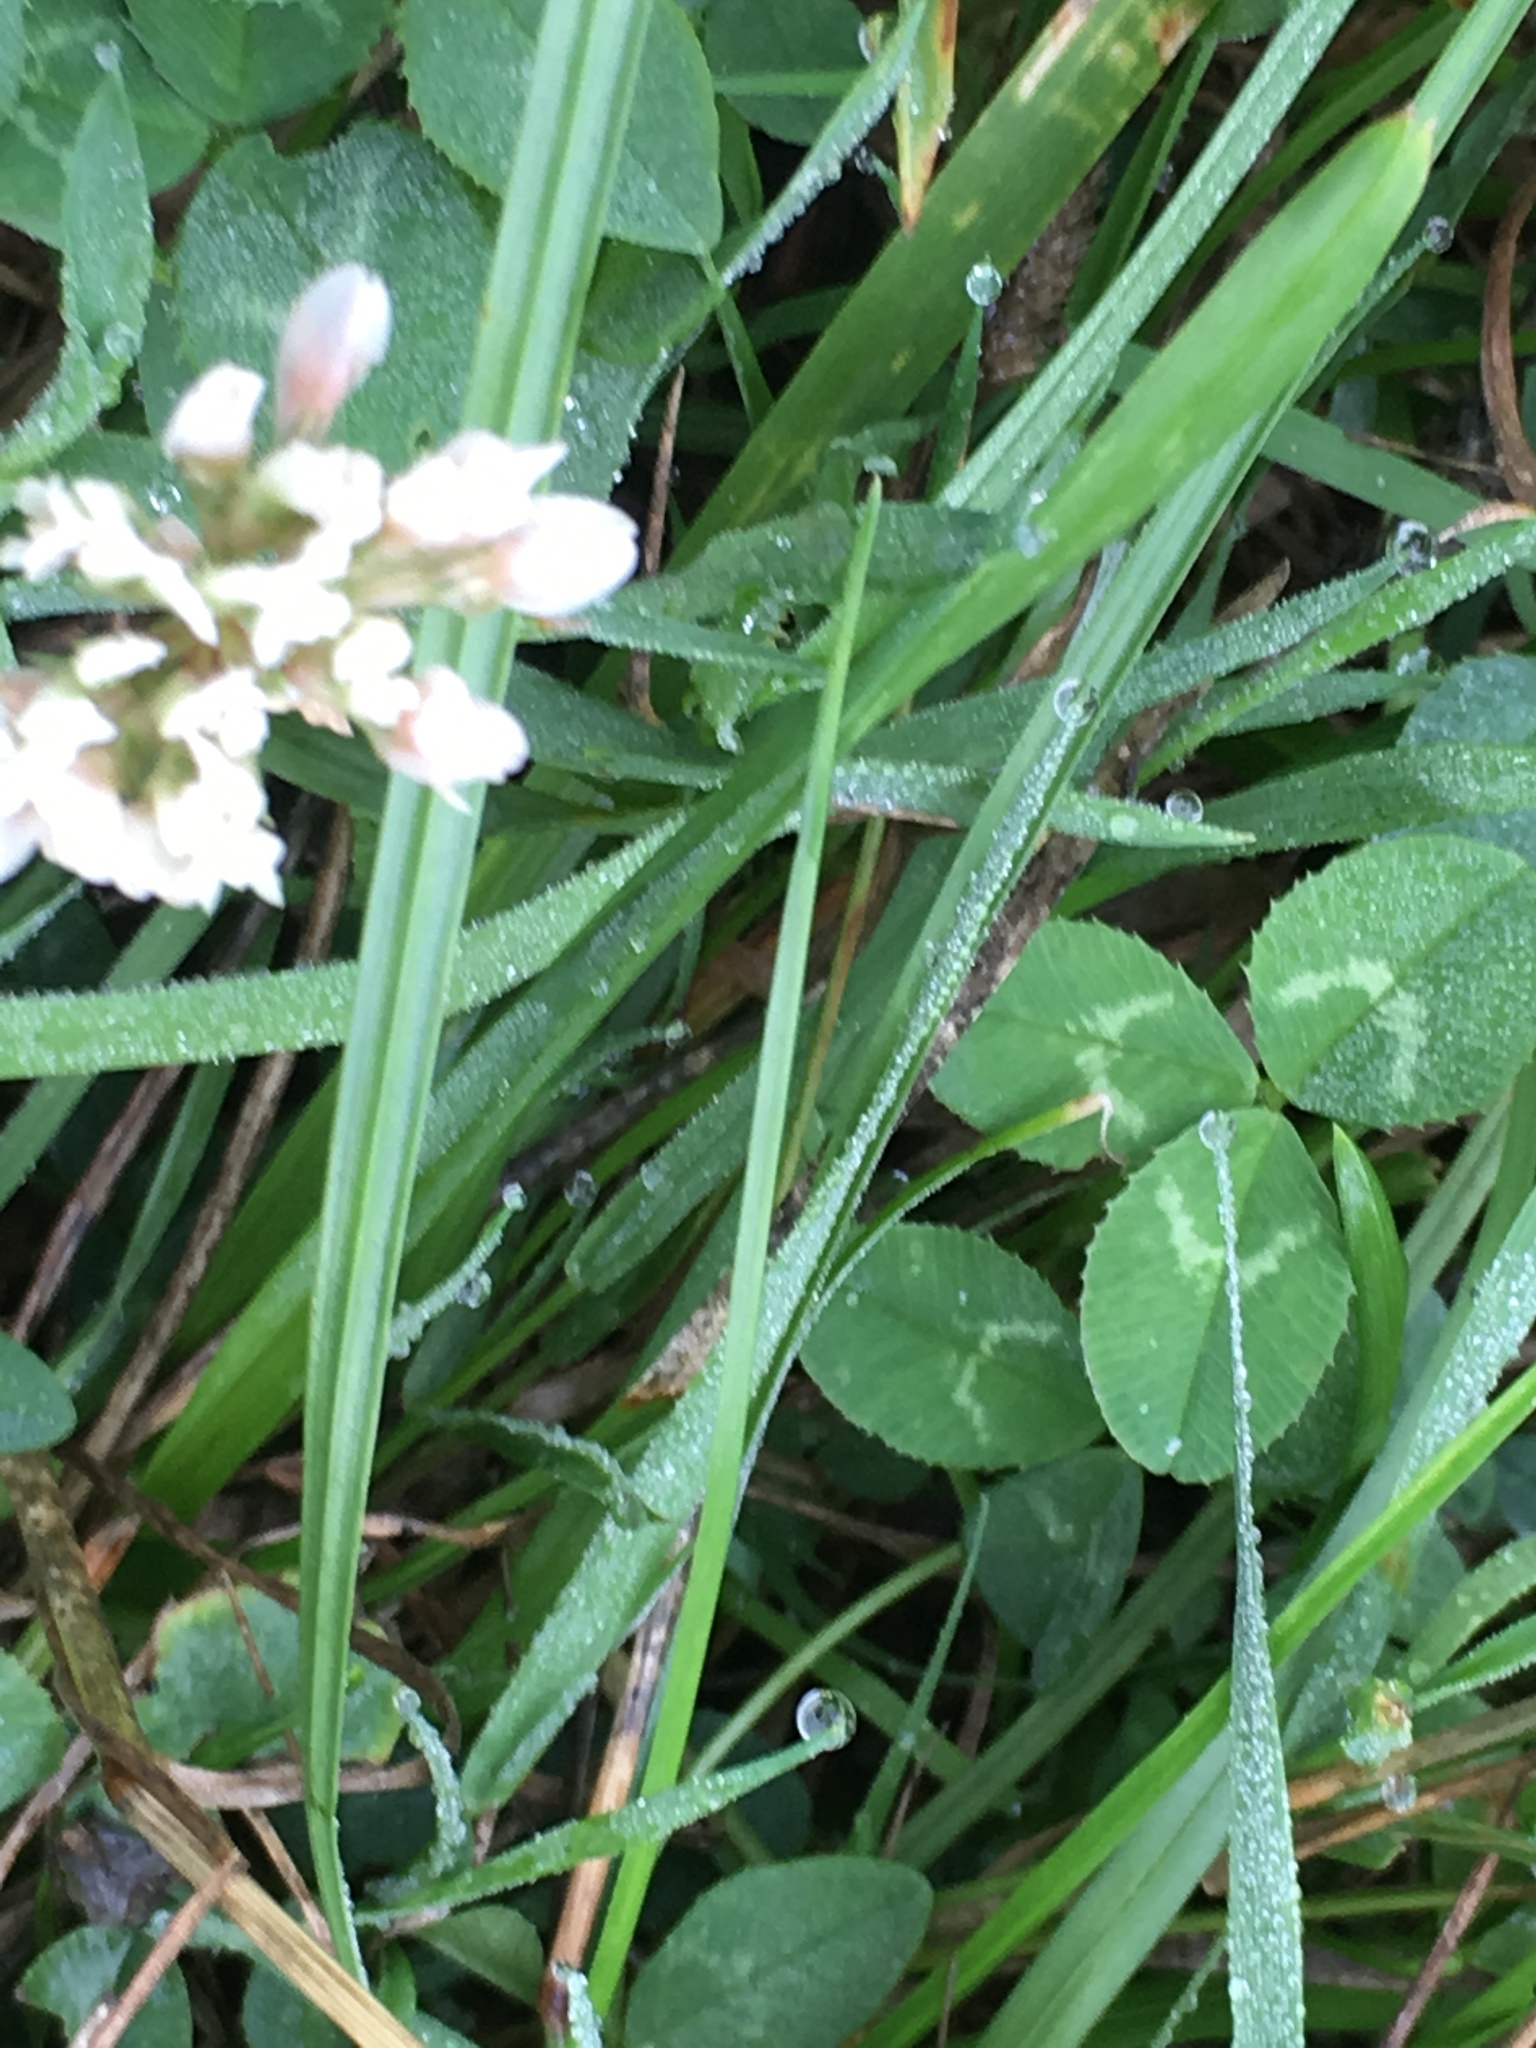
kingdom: Plantae
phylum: Tracheophyta
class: Magnoliopsida
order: Fabales
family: Fabaceae
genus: Trifolium
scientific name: Trifolium repens
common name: White clover
